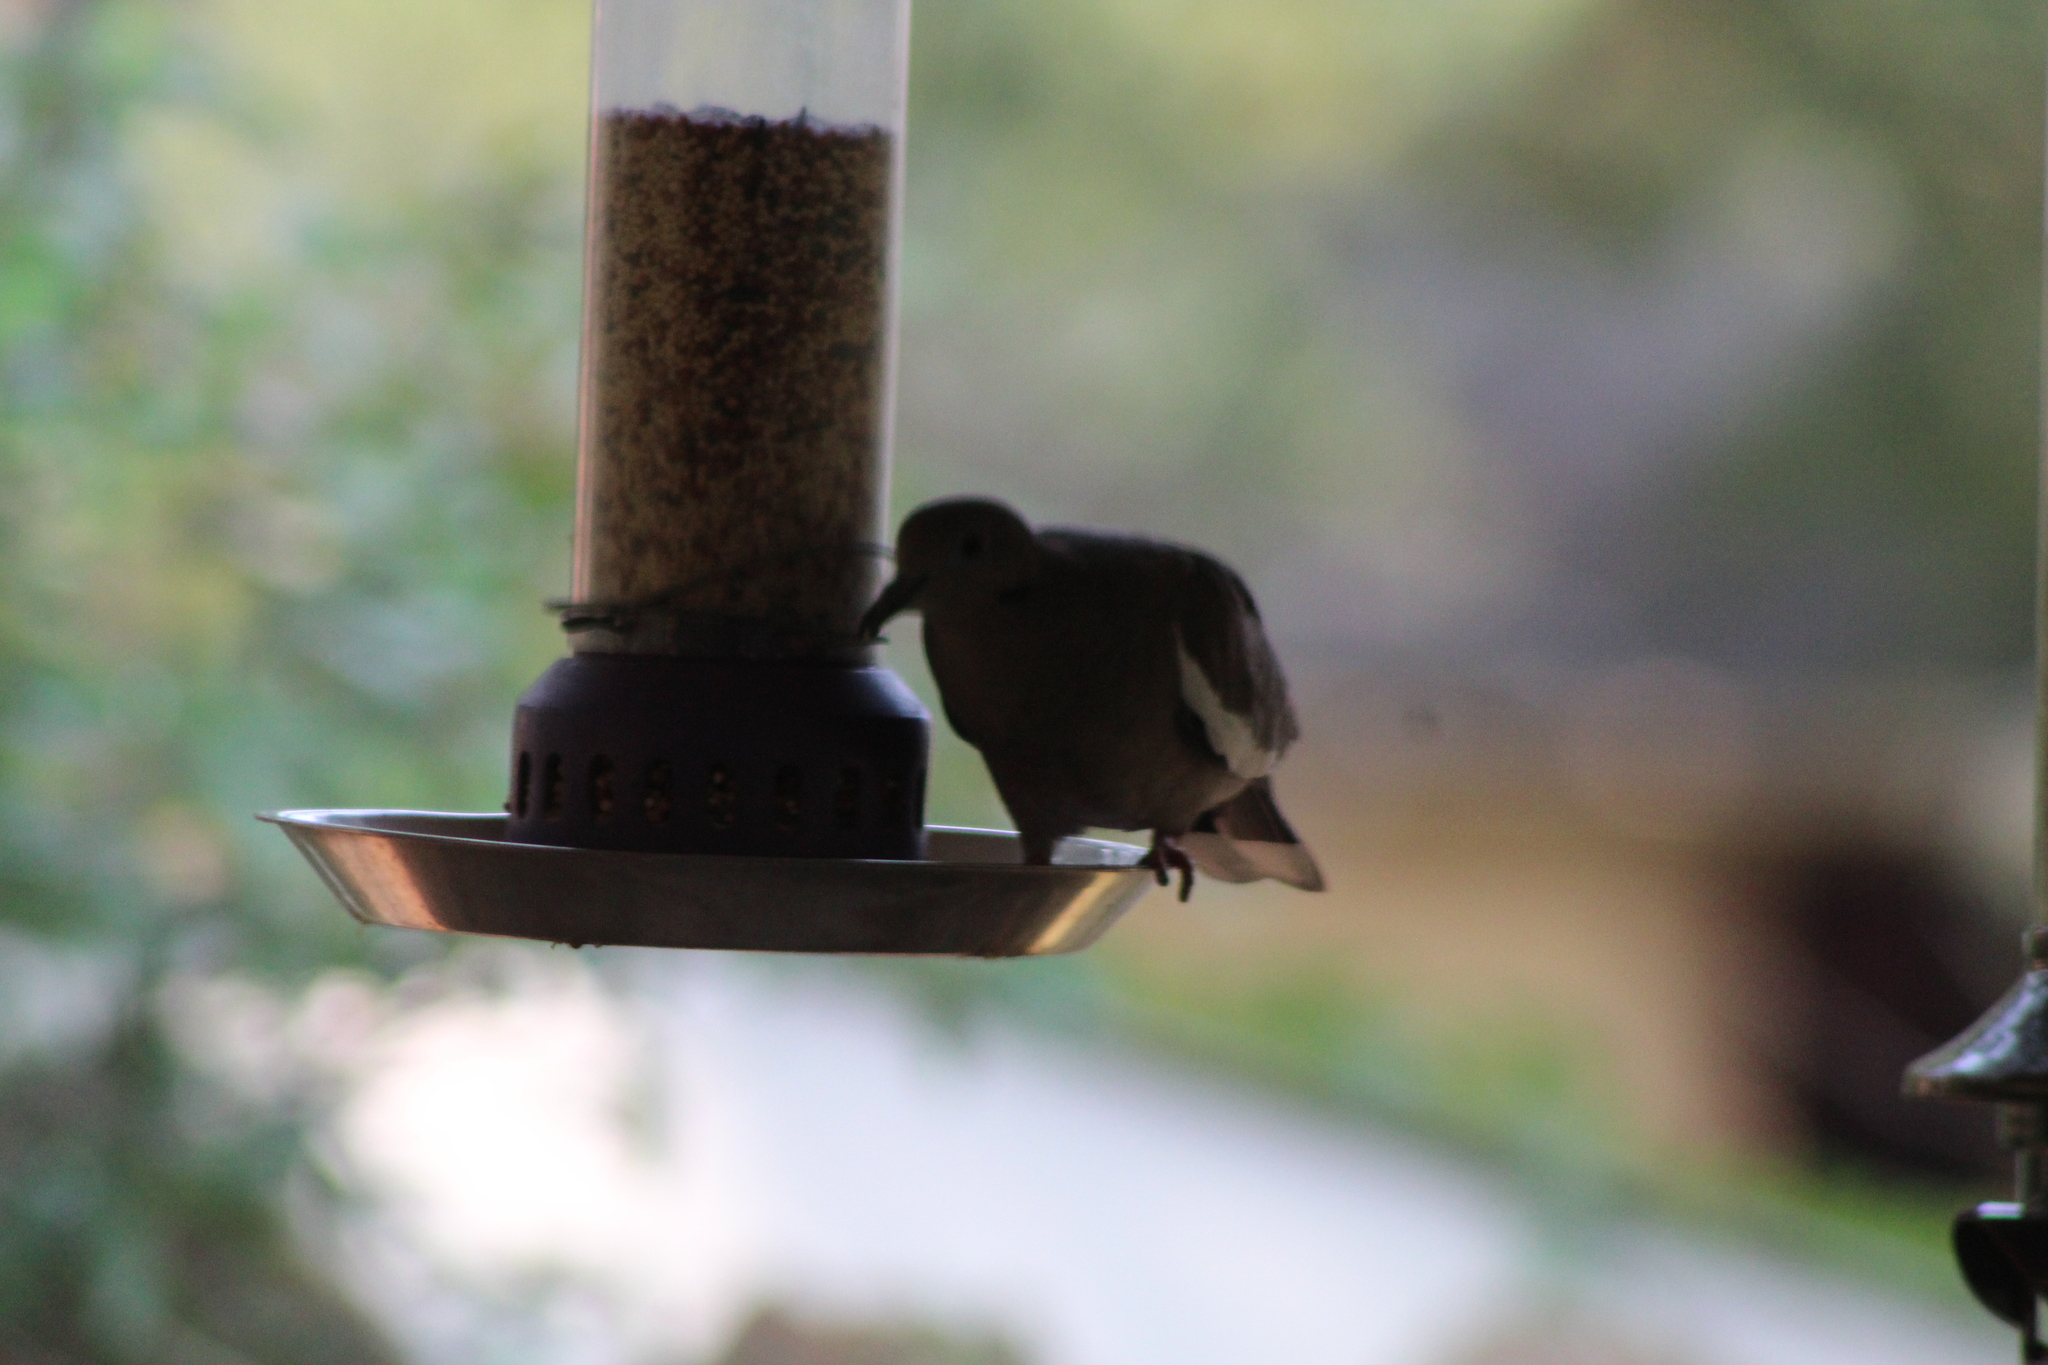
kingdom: Animalia
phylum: Chordata
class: Aves
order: Columbiformes
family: Columbidae
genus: Zenaida
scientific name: Zenaida asiatica
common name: White-winged dove
